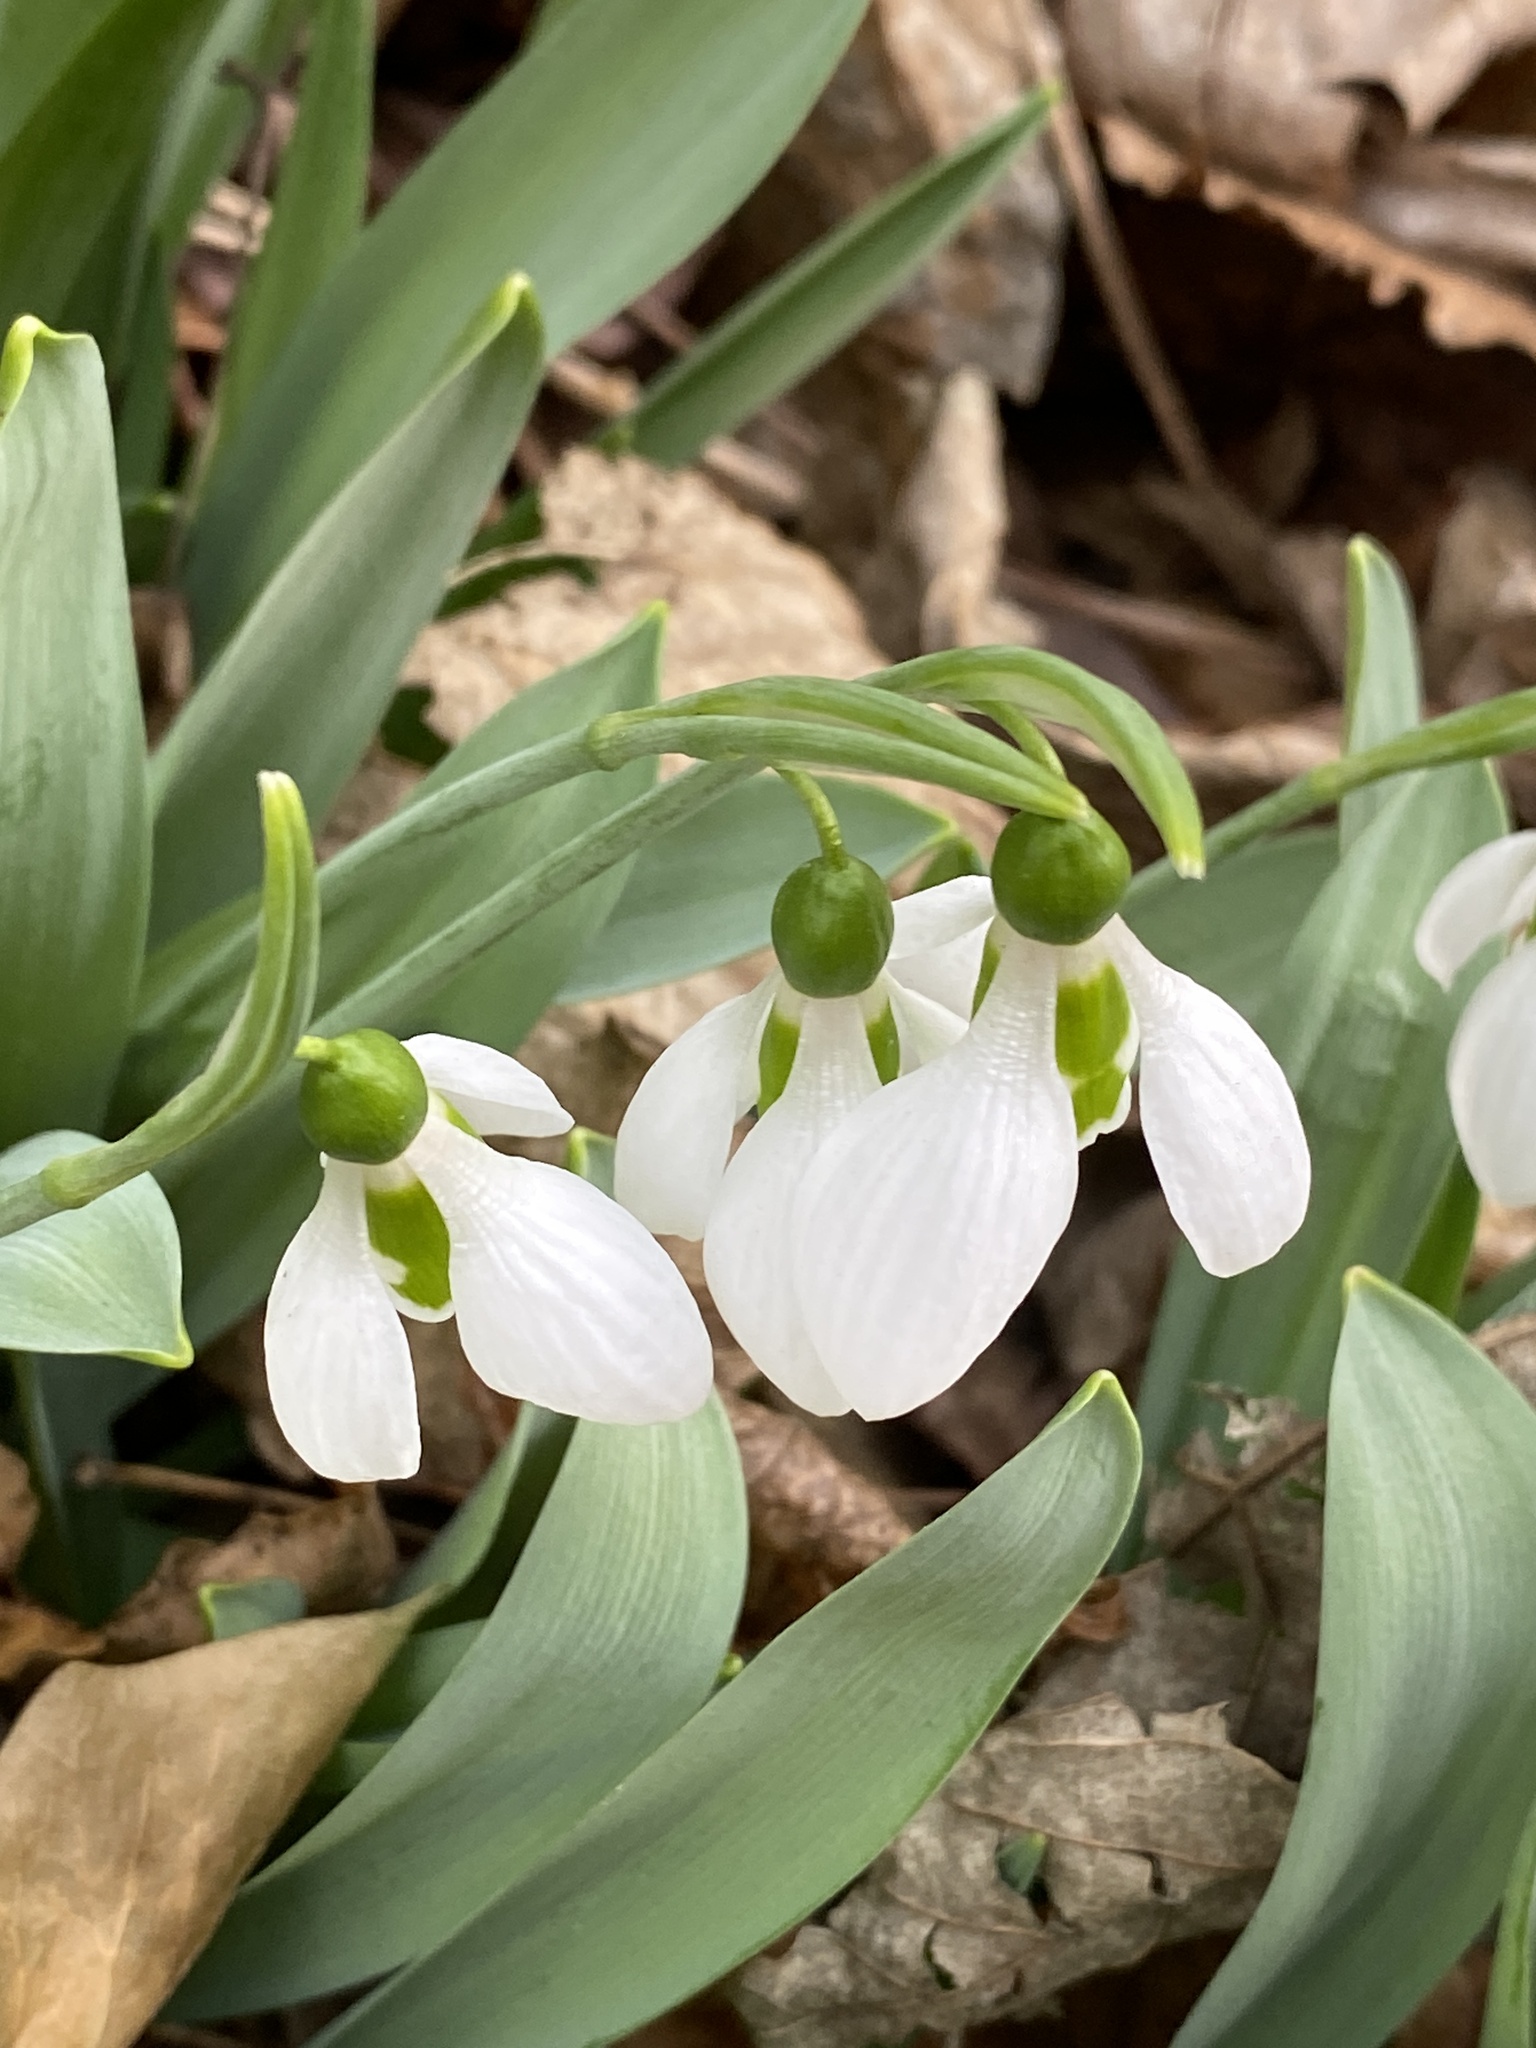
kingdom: Plantae
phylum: Tracheophyta
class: Liliopsida
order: Asparagales
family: Amaryllidaceae
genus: Galanthus
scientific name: Galanthus elwesii
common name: Greater snowdrop
